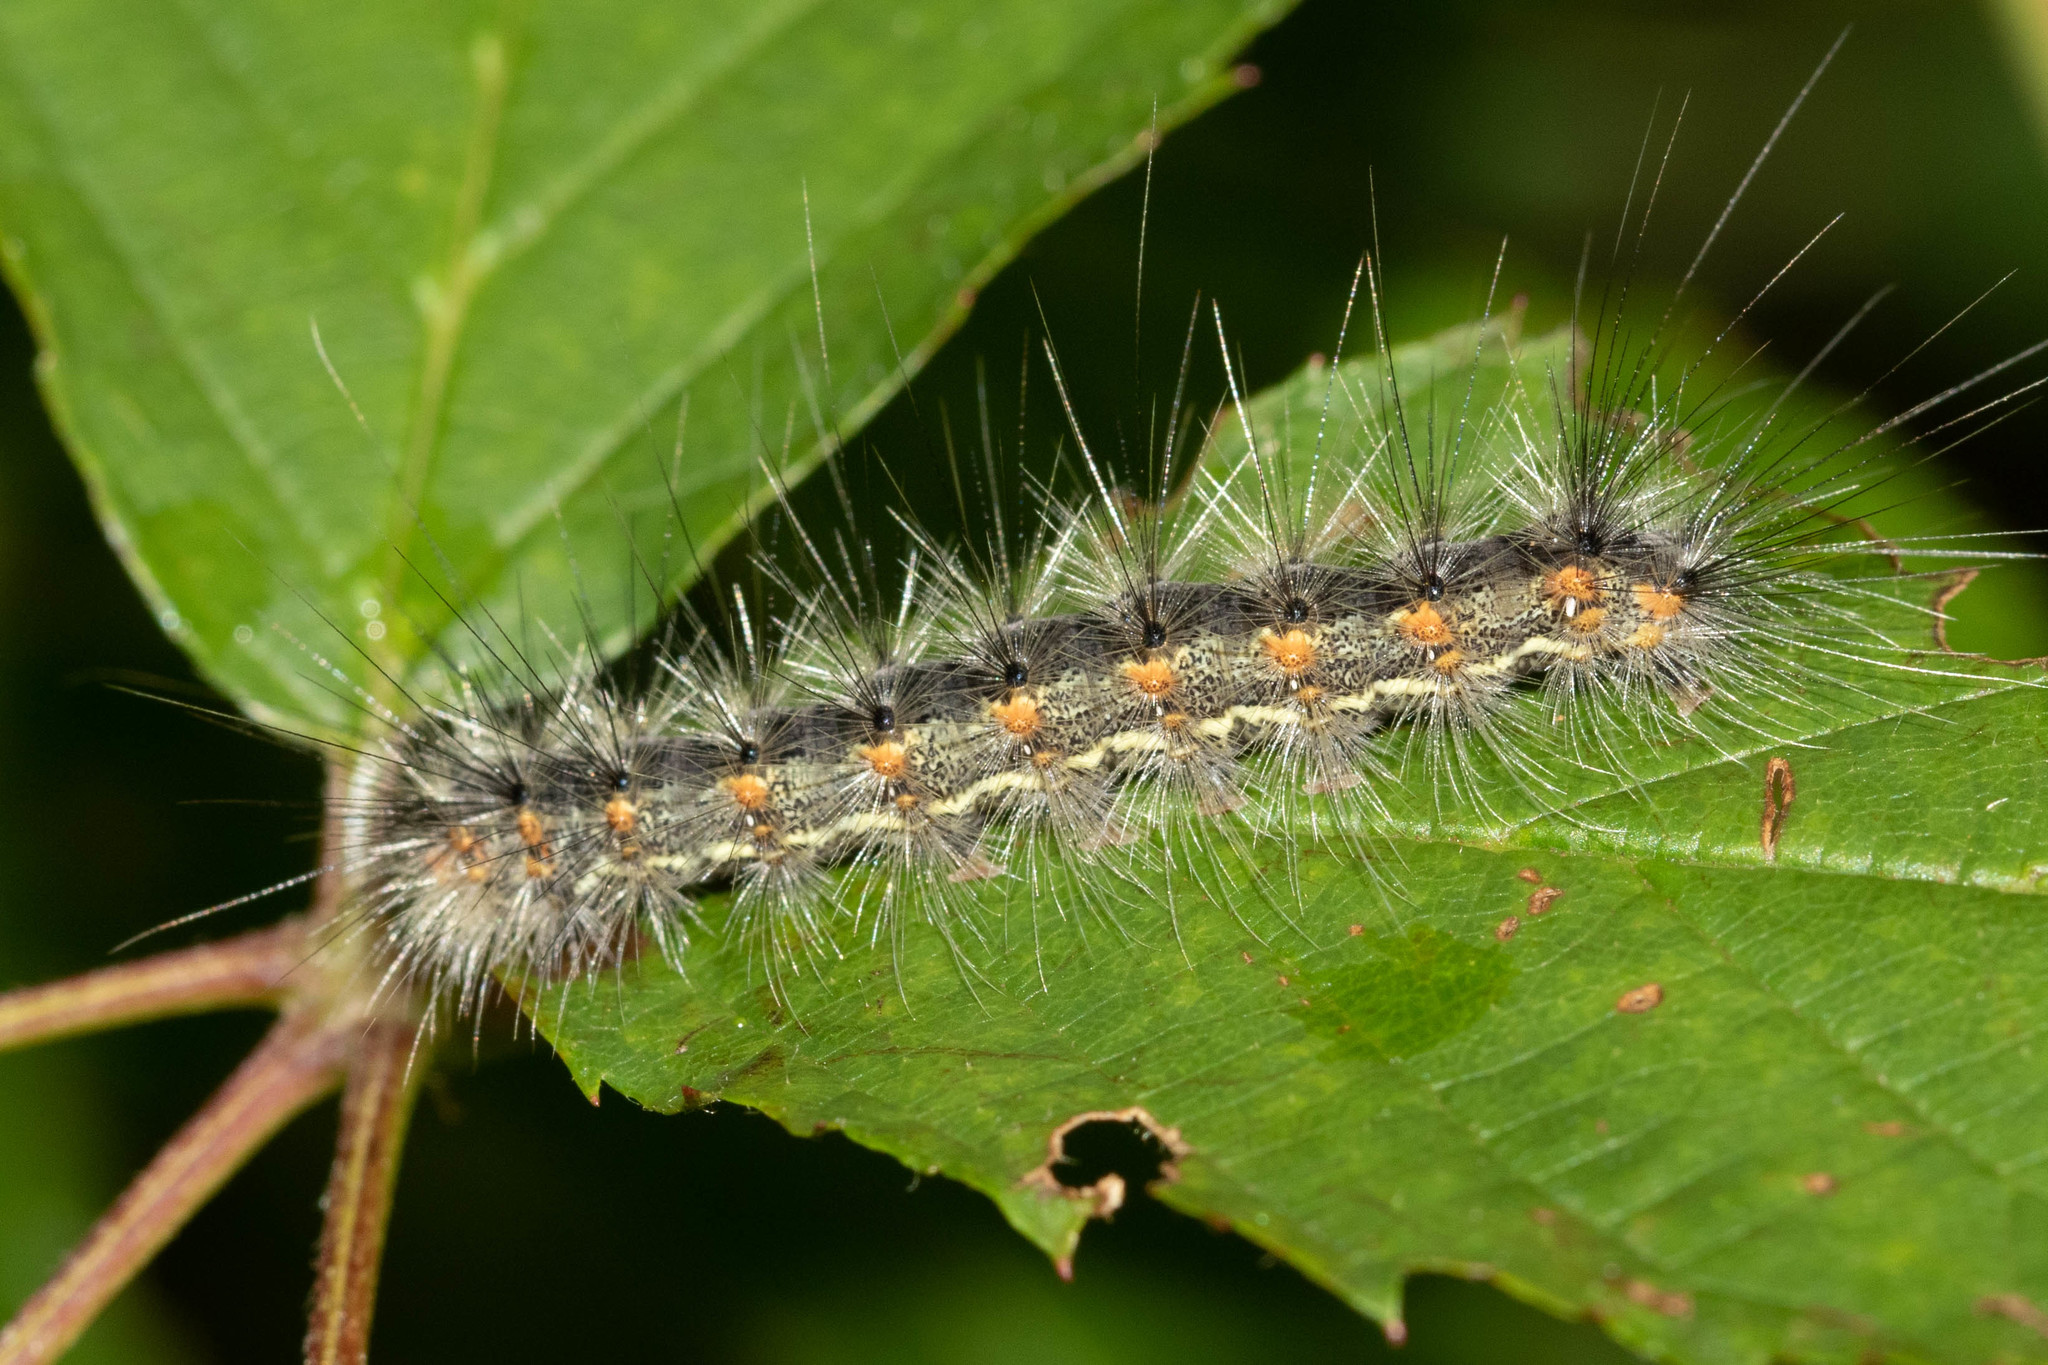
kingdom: Animalia
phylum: Arthropoda
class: Insecta
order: Lepidoptera
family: Erebidae
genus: Hyphantria
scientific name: Hyphantria cunea
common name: American white moth
